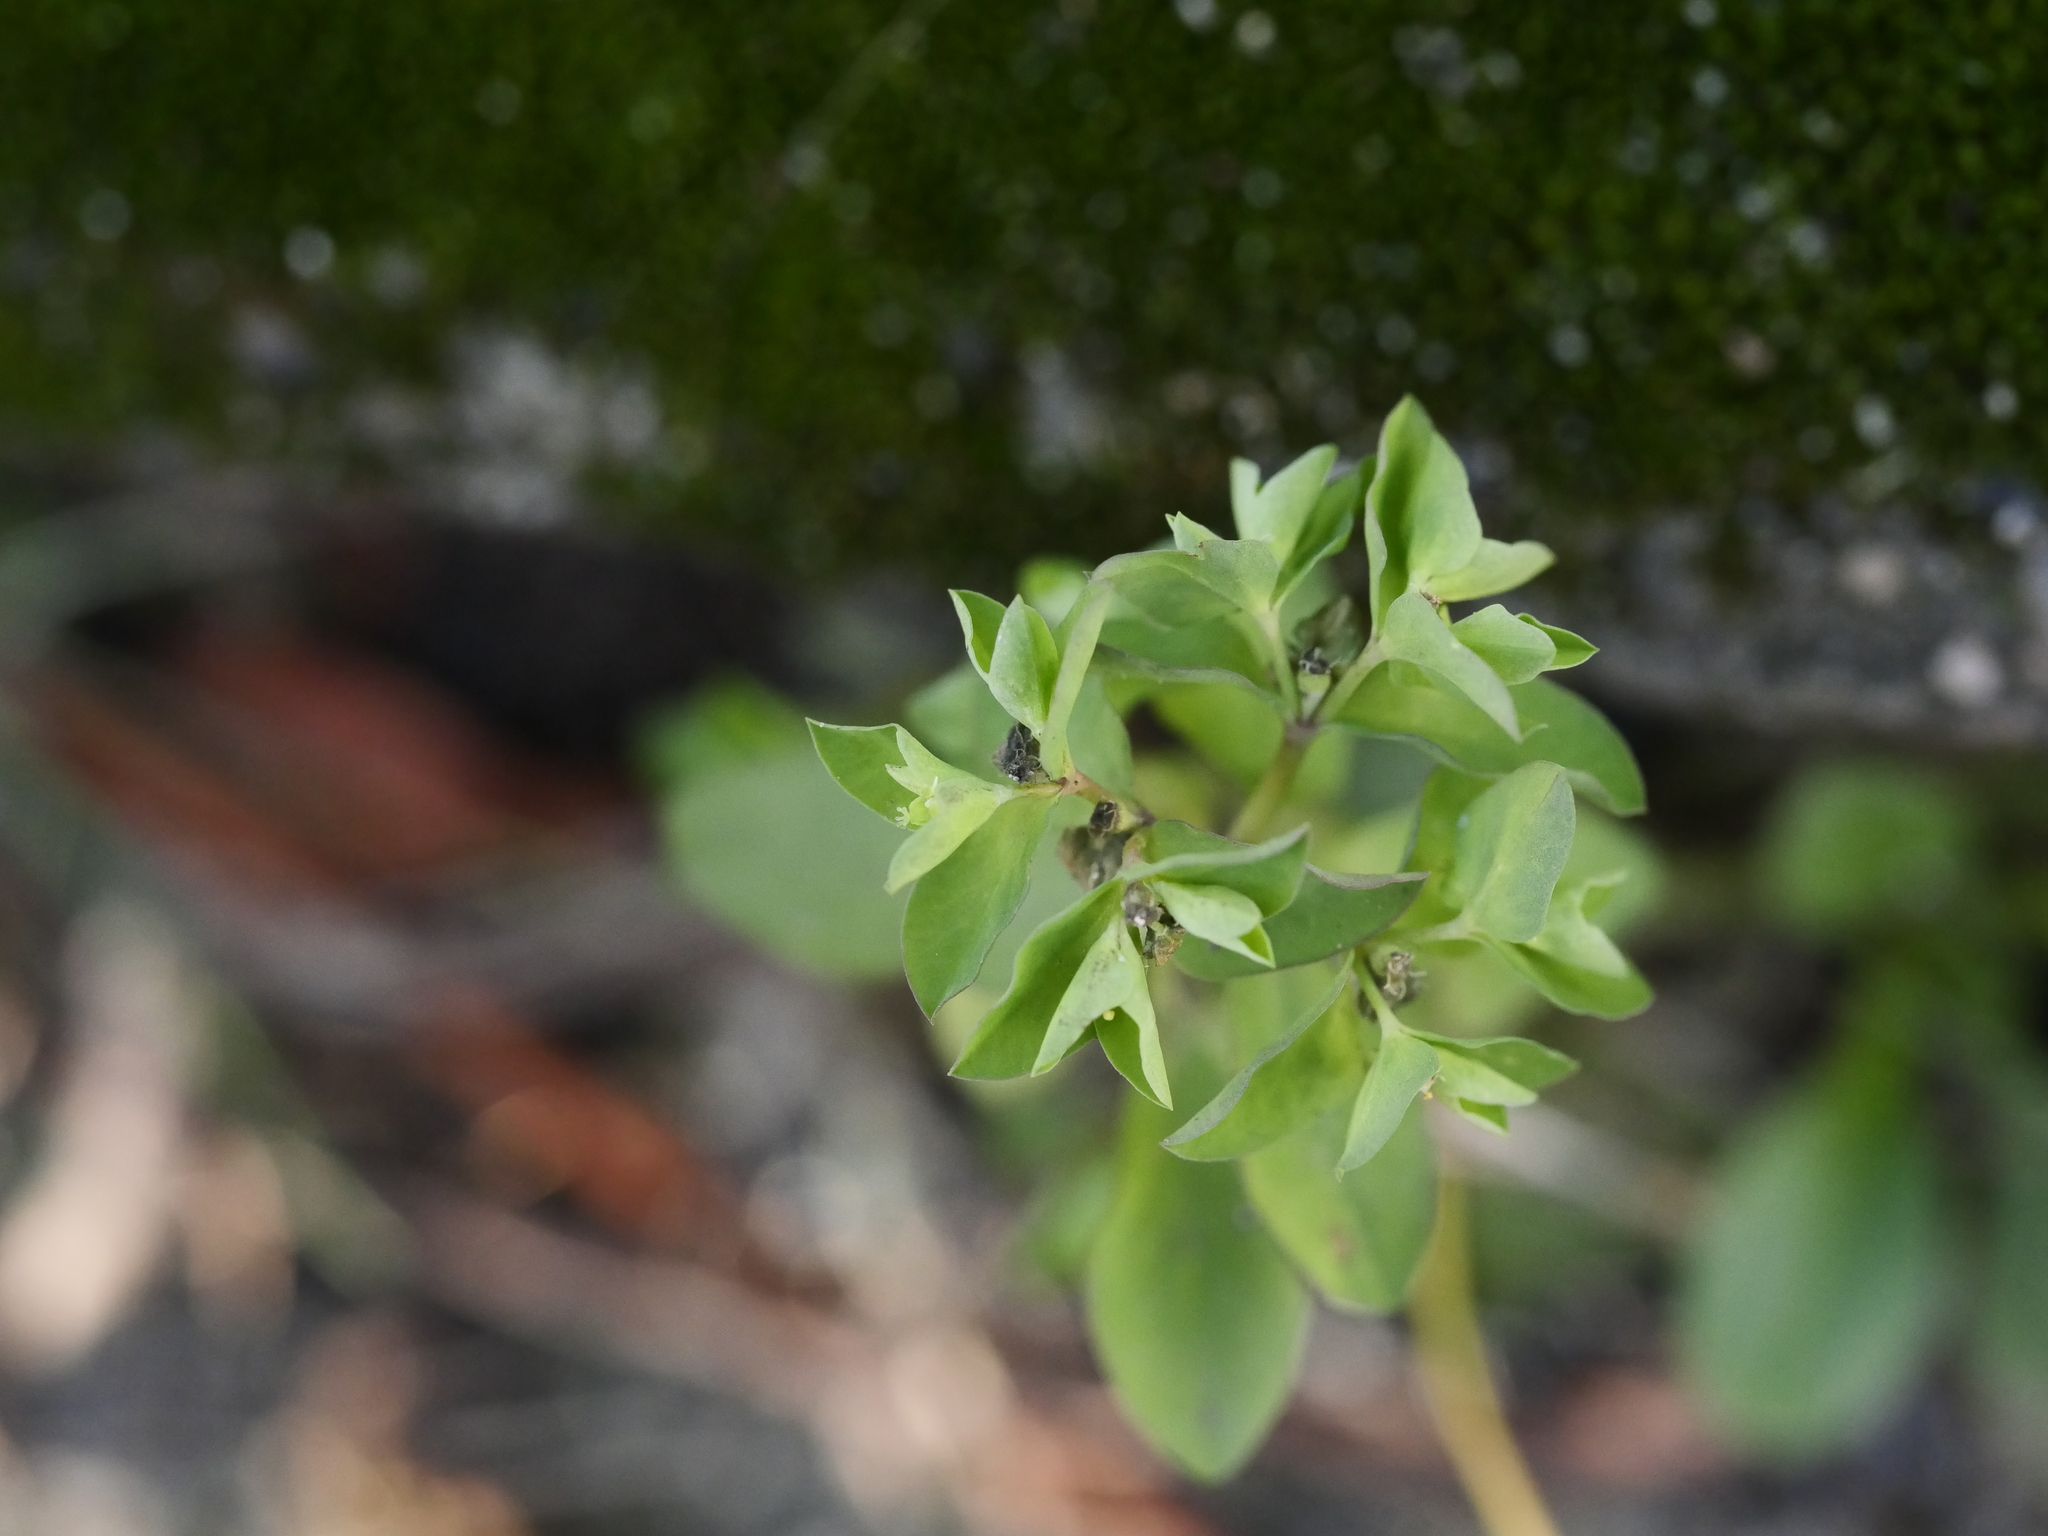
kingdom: Plantae
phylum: Tracheophyta
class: Magnoliopsida
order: Malpighiales
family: Euphorbiaceae
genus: Euphorbia
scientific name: Euphorbia peplus
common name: Petty spurge
